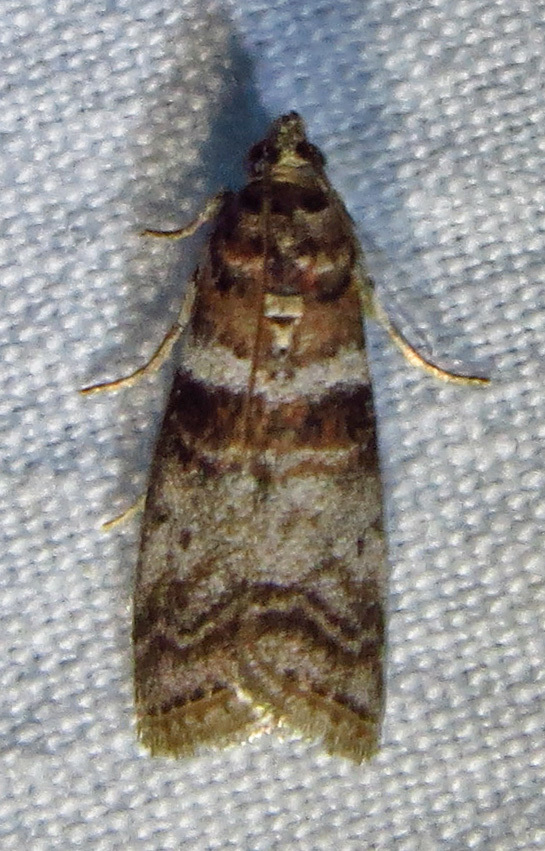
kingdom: Animalia
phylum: Arthropoda
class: Insecta
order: Lepidoptera
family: Pyralidae
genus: Sciota
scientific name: Sciota uvinella
